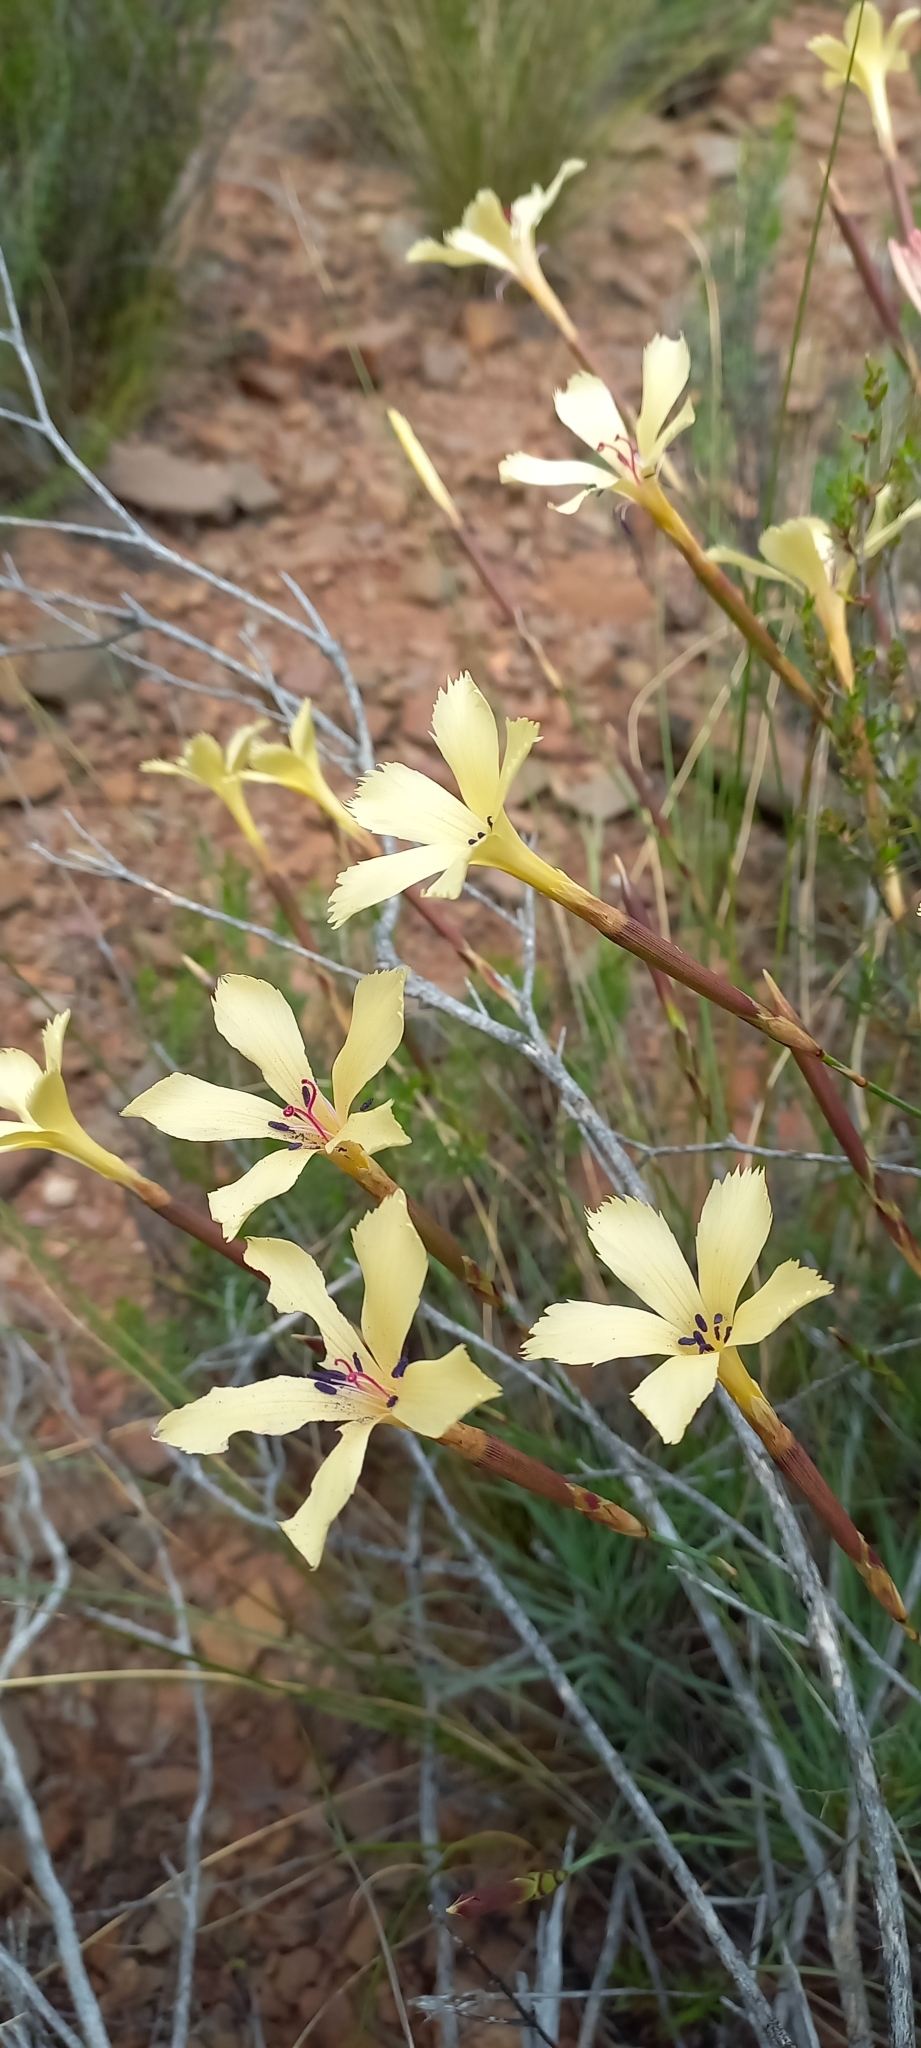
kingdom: Plantae
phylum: Tracheophyta
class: Magnoliopsida
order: Caryophyllales
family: Caryophyllaceae
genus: Dianthus
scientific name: Dianthus caespitosus
